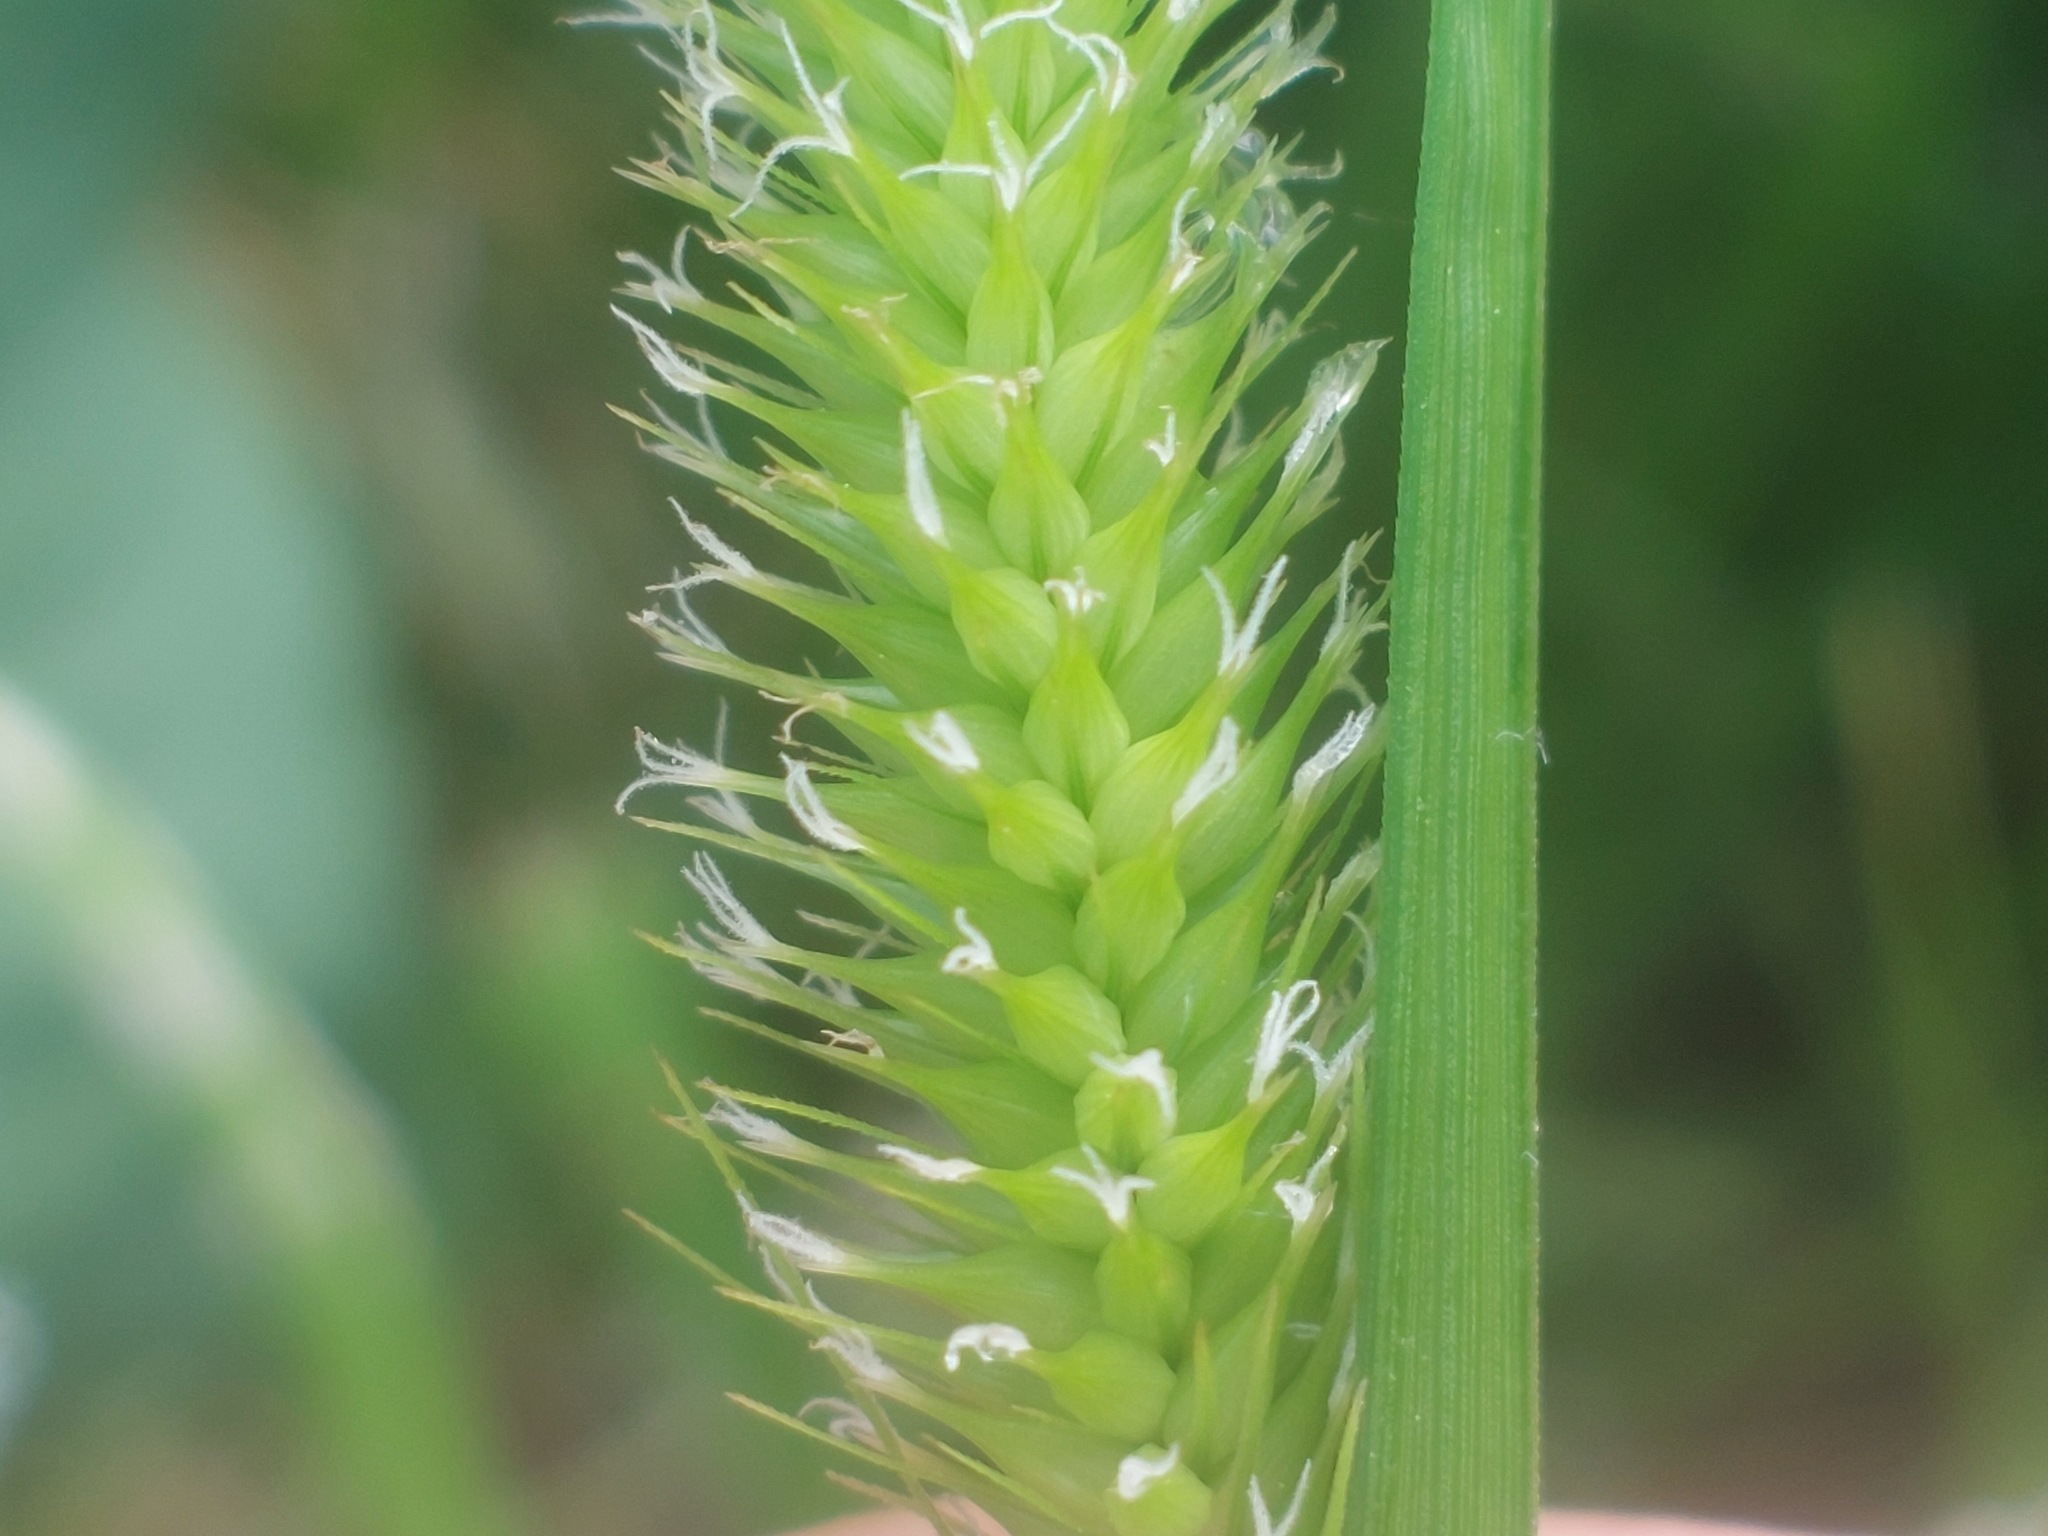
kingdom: Plantae
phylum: Tracheophyta
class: Liliopsida
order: Poales
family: Cyperaceae
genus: Carex
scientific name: Carex pseudocyperus
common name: Cyperus sedge
